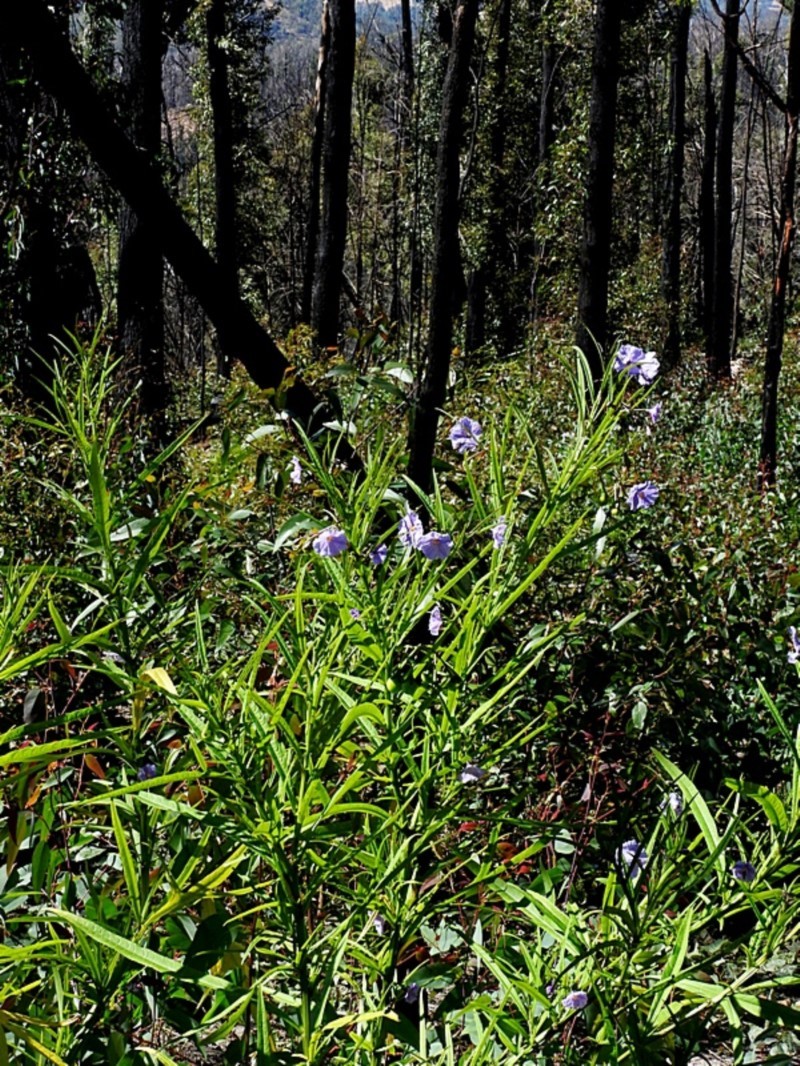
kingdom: Plantae
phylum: Tracheophyta
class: Magnoliopsida
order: Solanales
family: Solanaceae
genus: Solanum
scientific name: Solanum vescum
